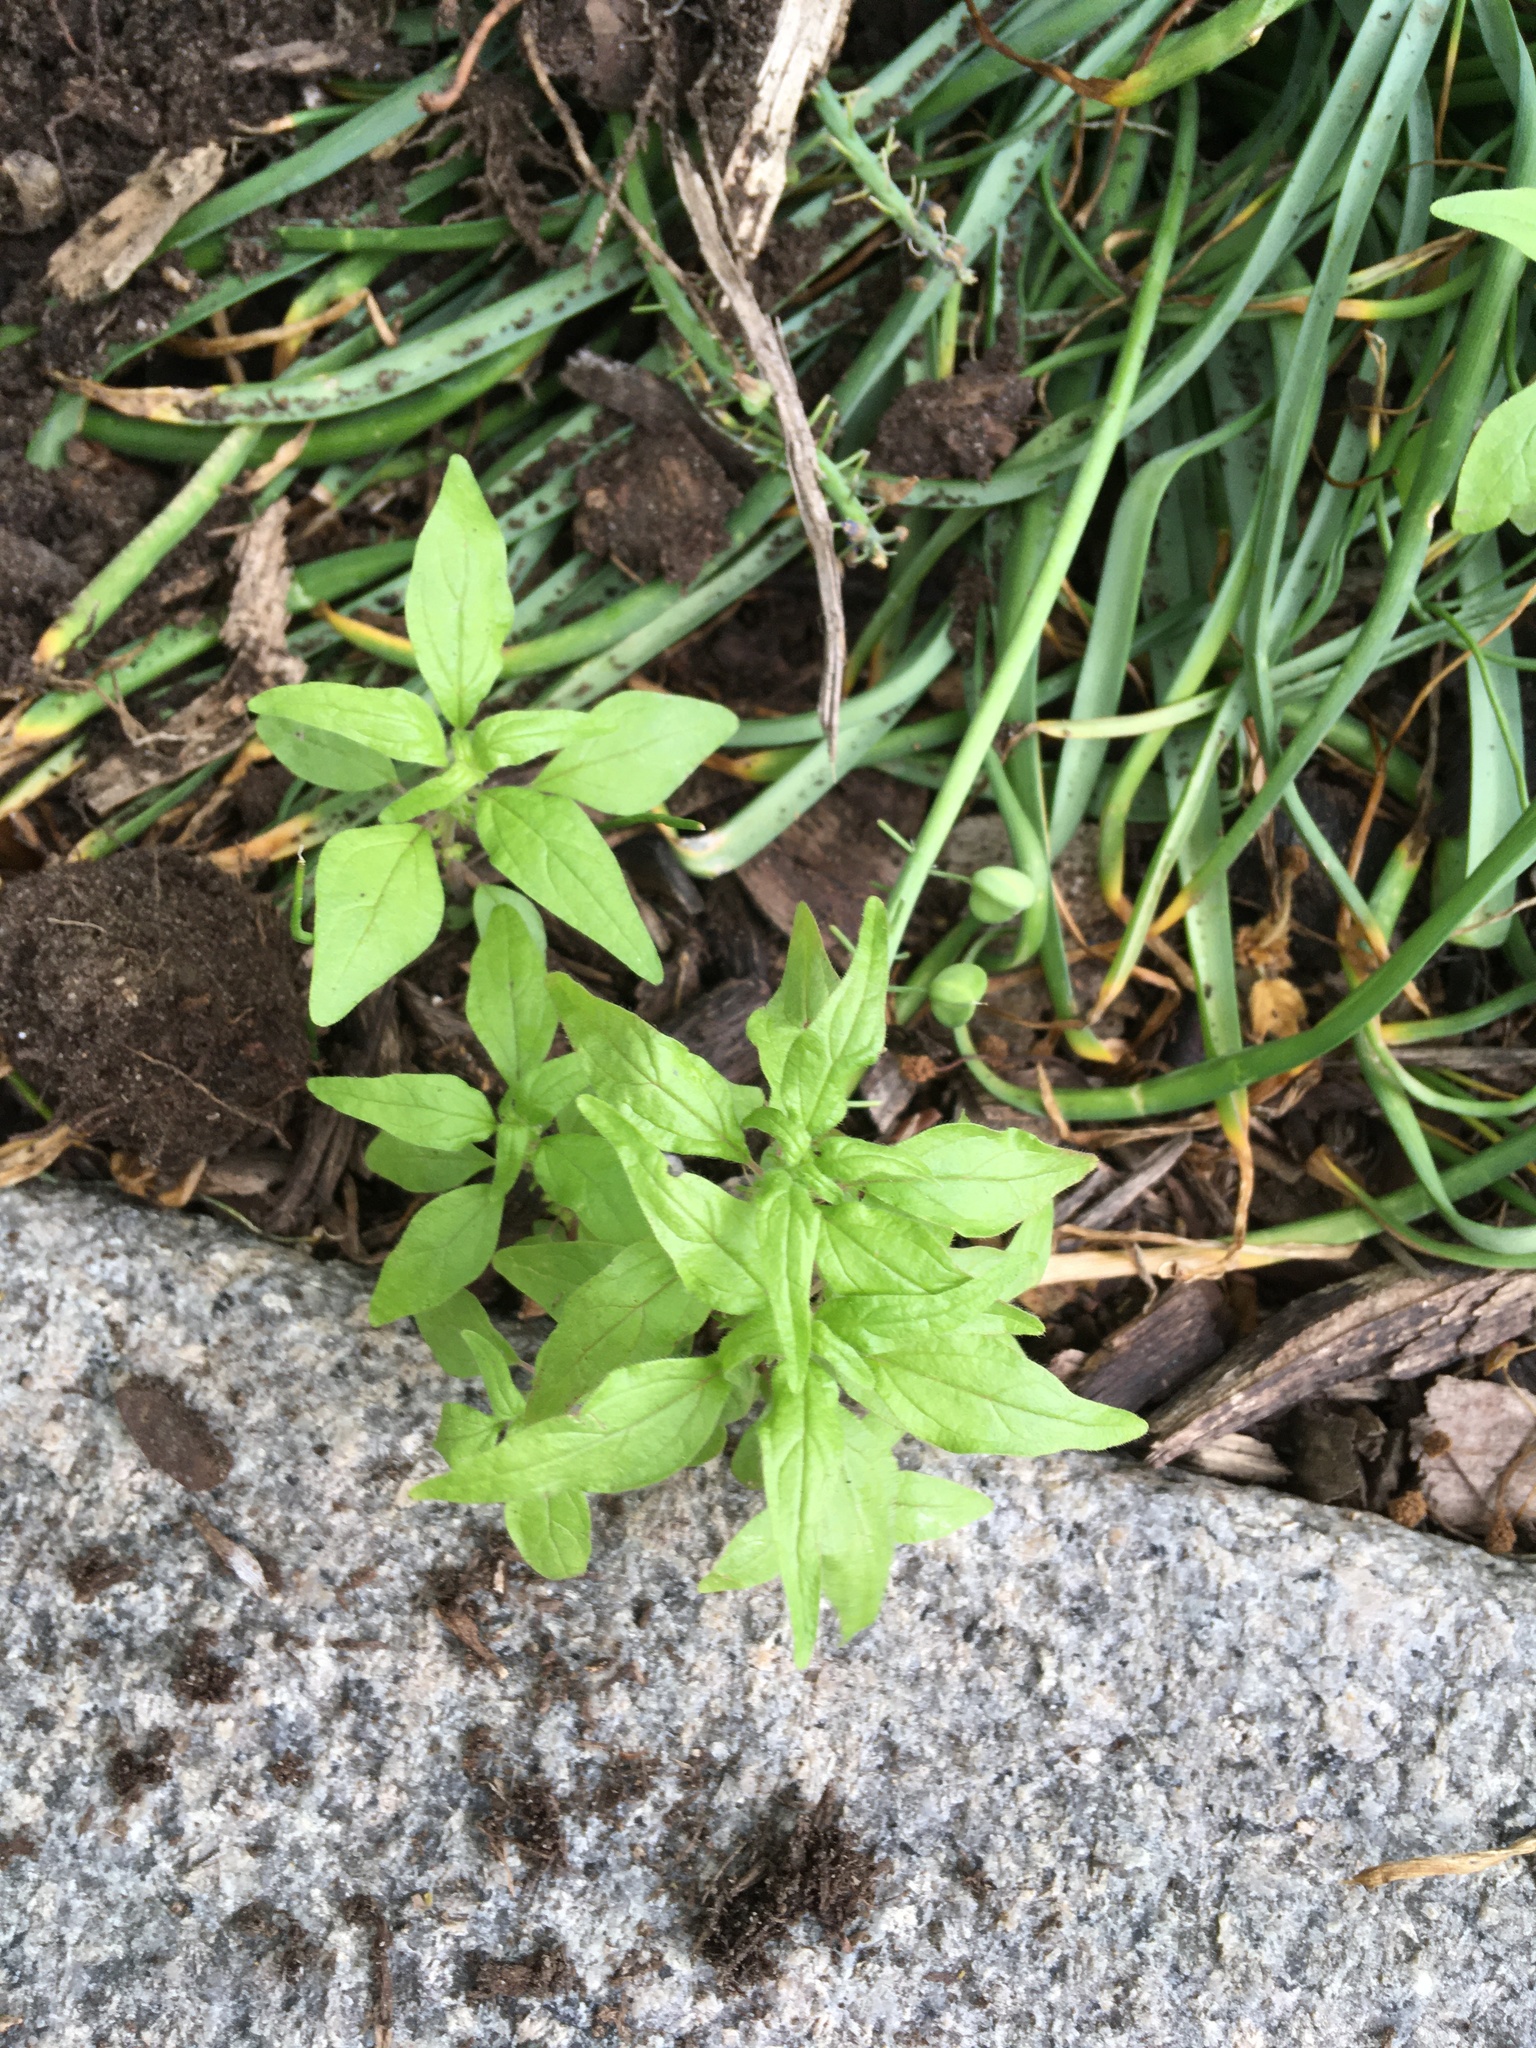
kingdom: Plantae
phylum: Tracheophyta
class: Magnoliopsida
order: Rosales
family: Urticaceae
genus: Parietaria
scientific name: Parietaria pensylvanica
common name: Pennsylvania pellitory
